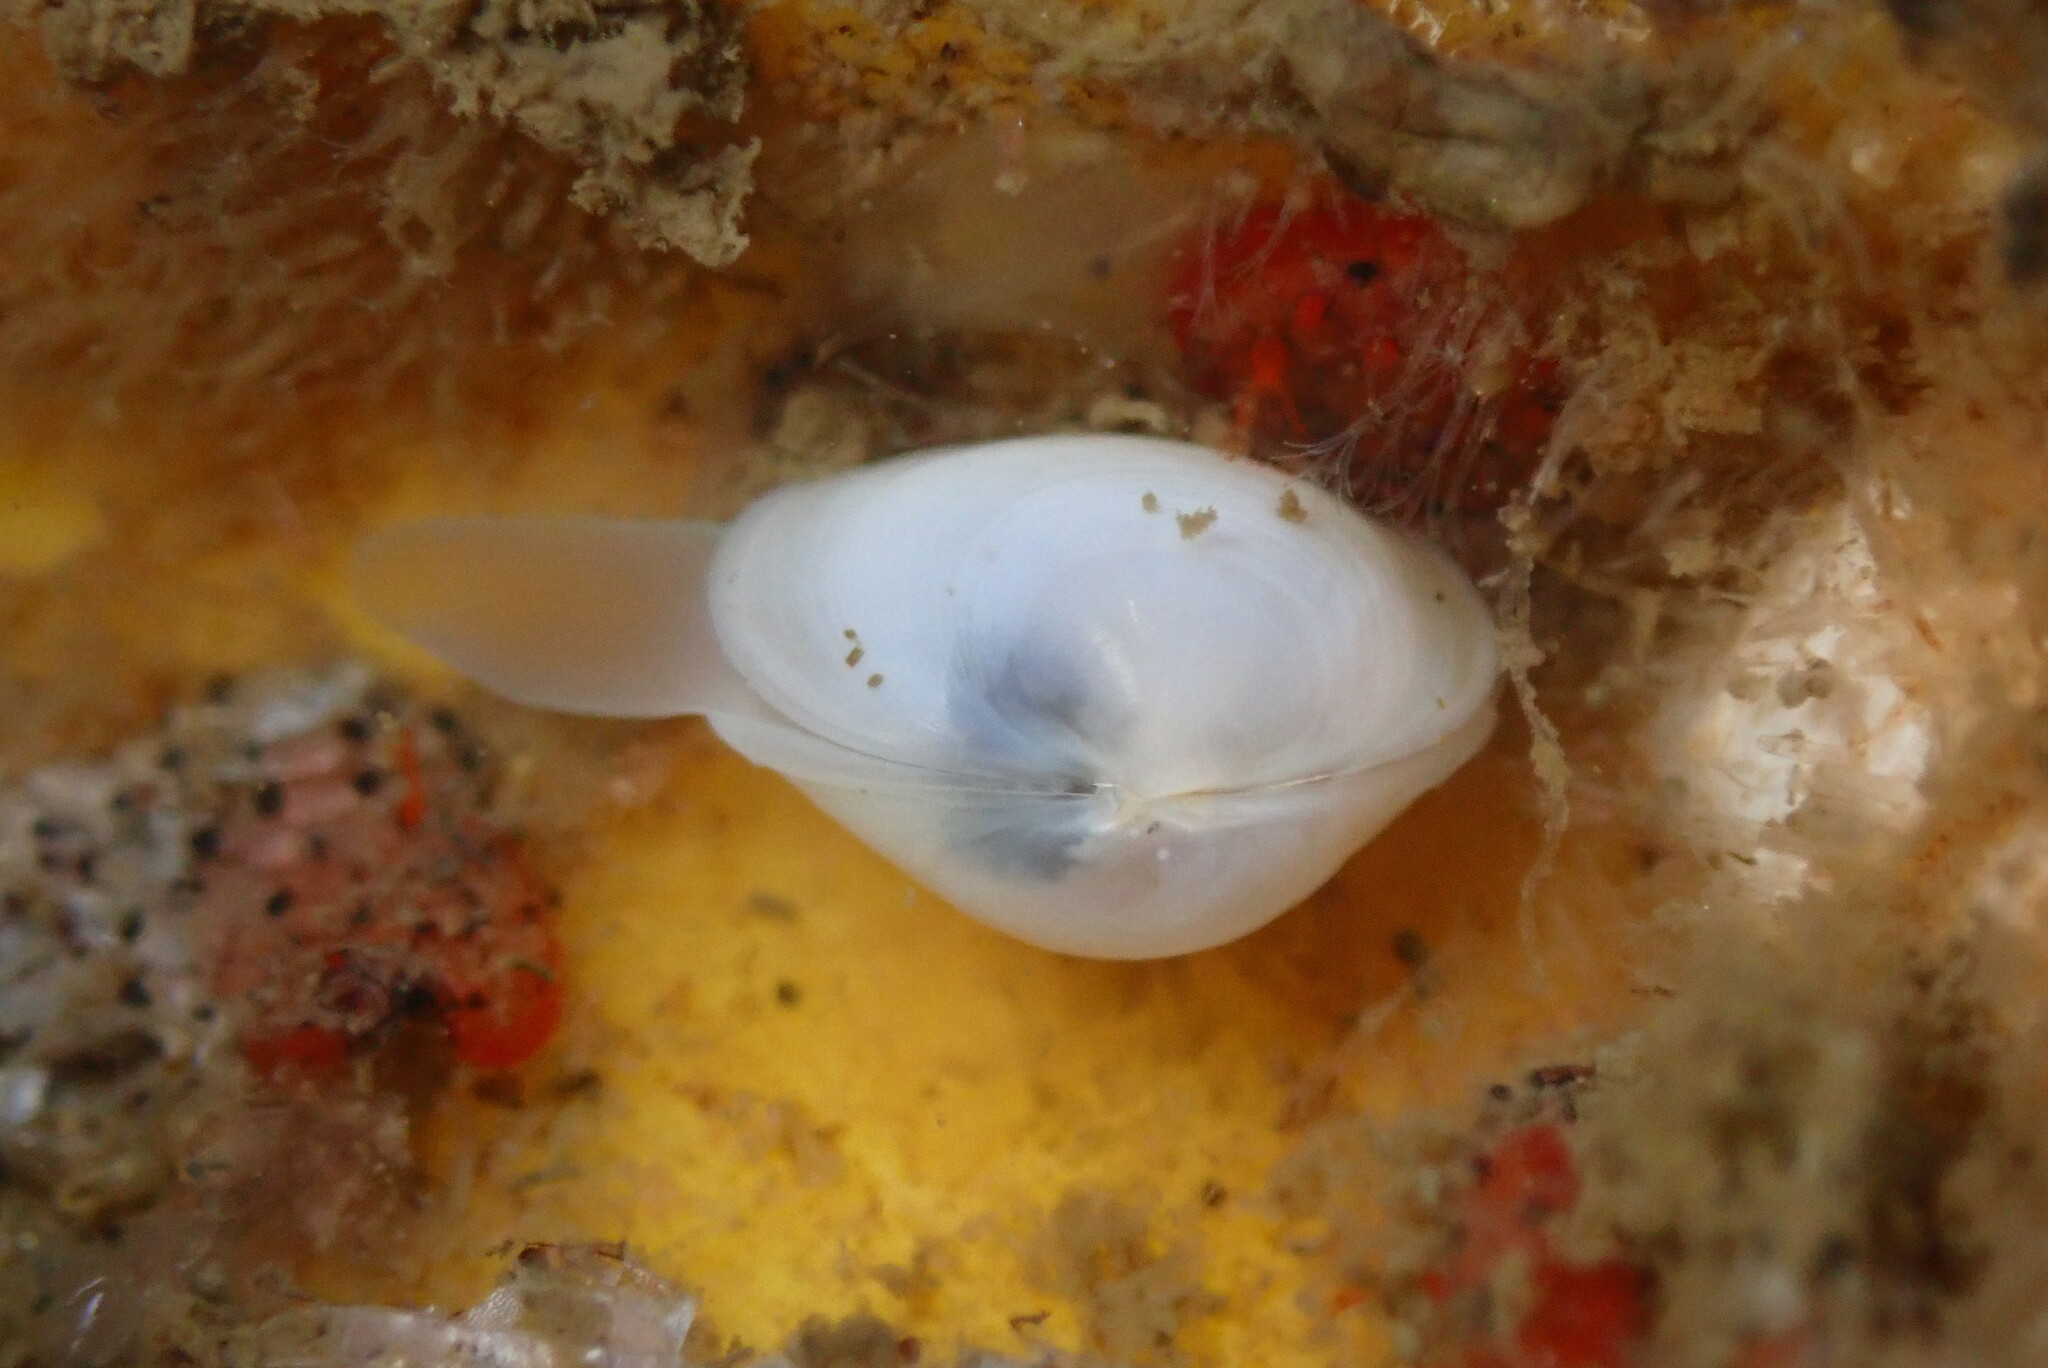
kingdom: Animalia
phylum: Mollusca
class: Bivalvia
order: Galeommatida
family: Lasaeidae
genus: Kellia
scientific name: Kellia laperousii
